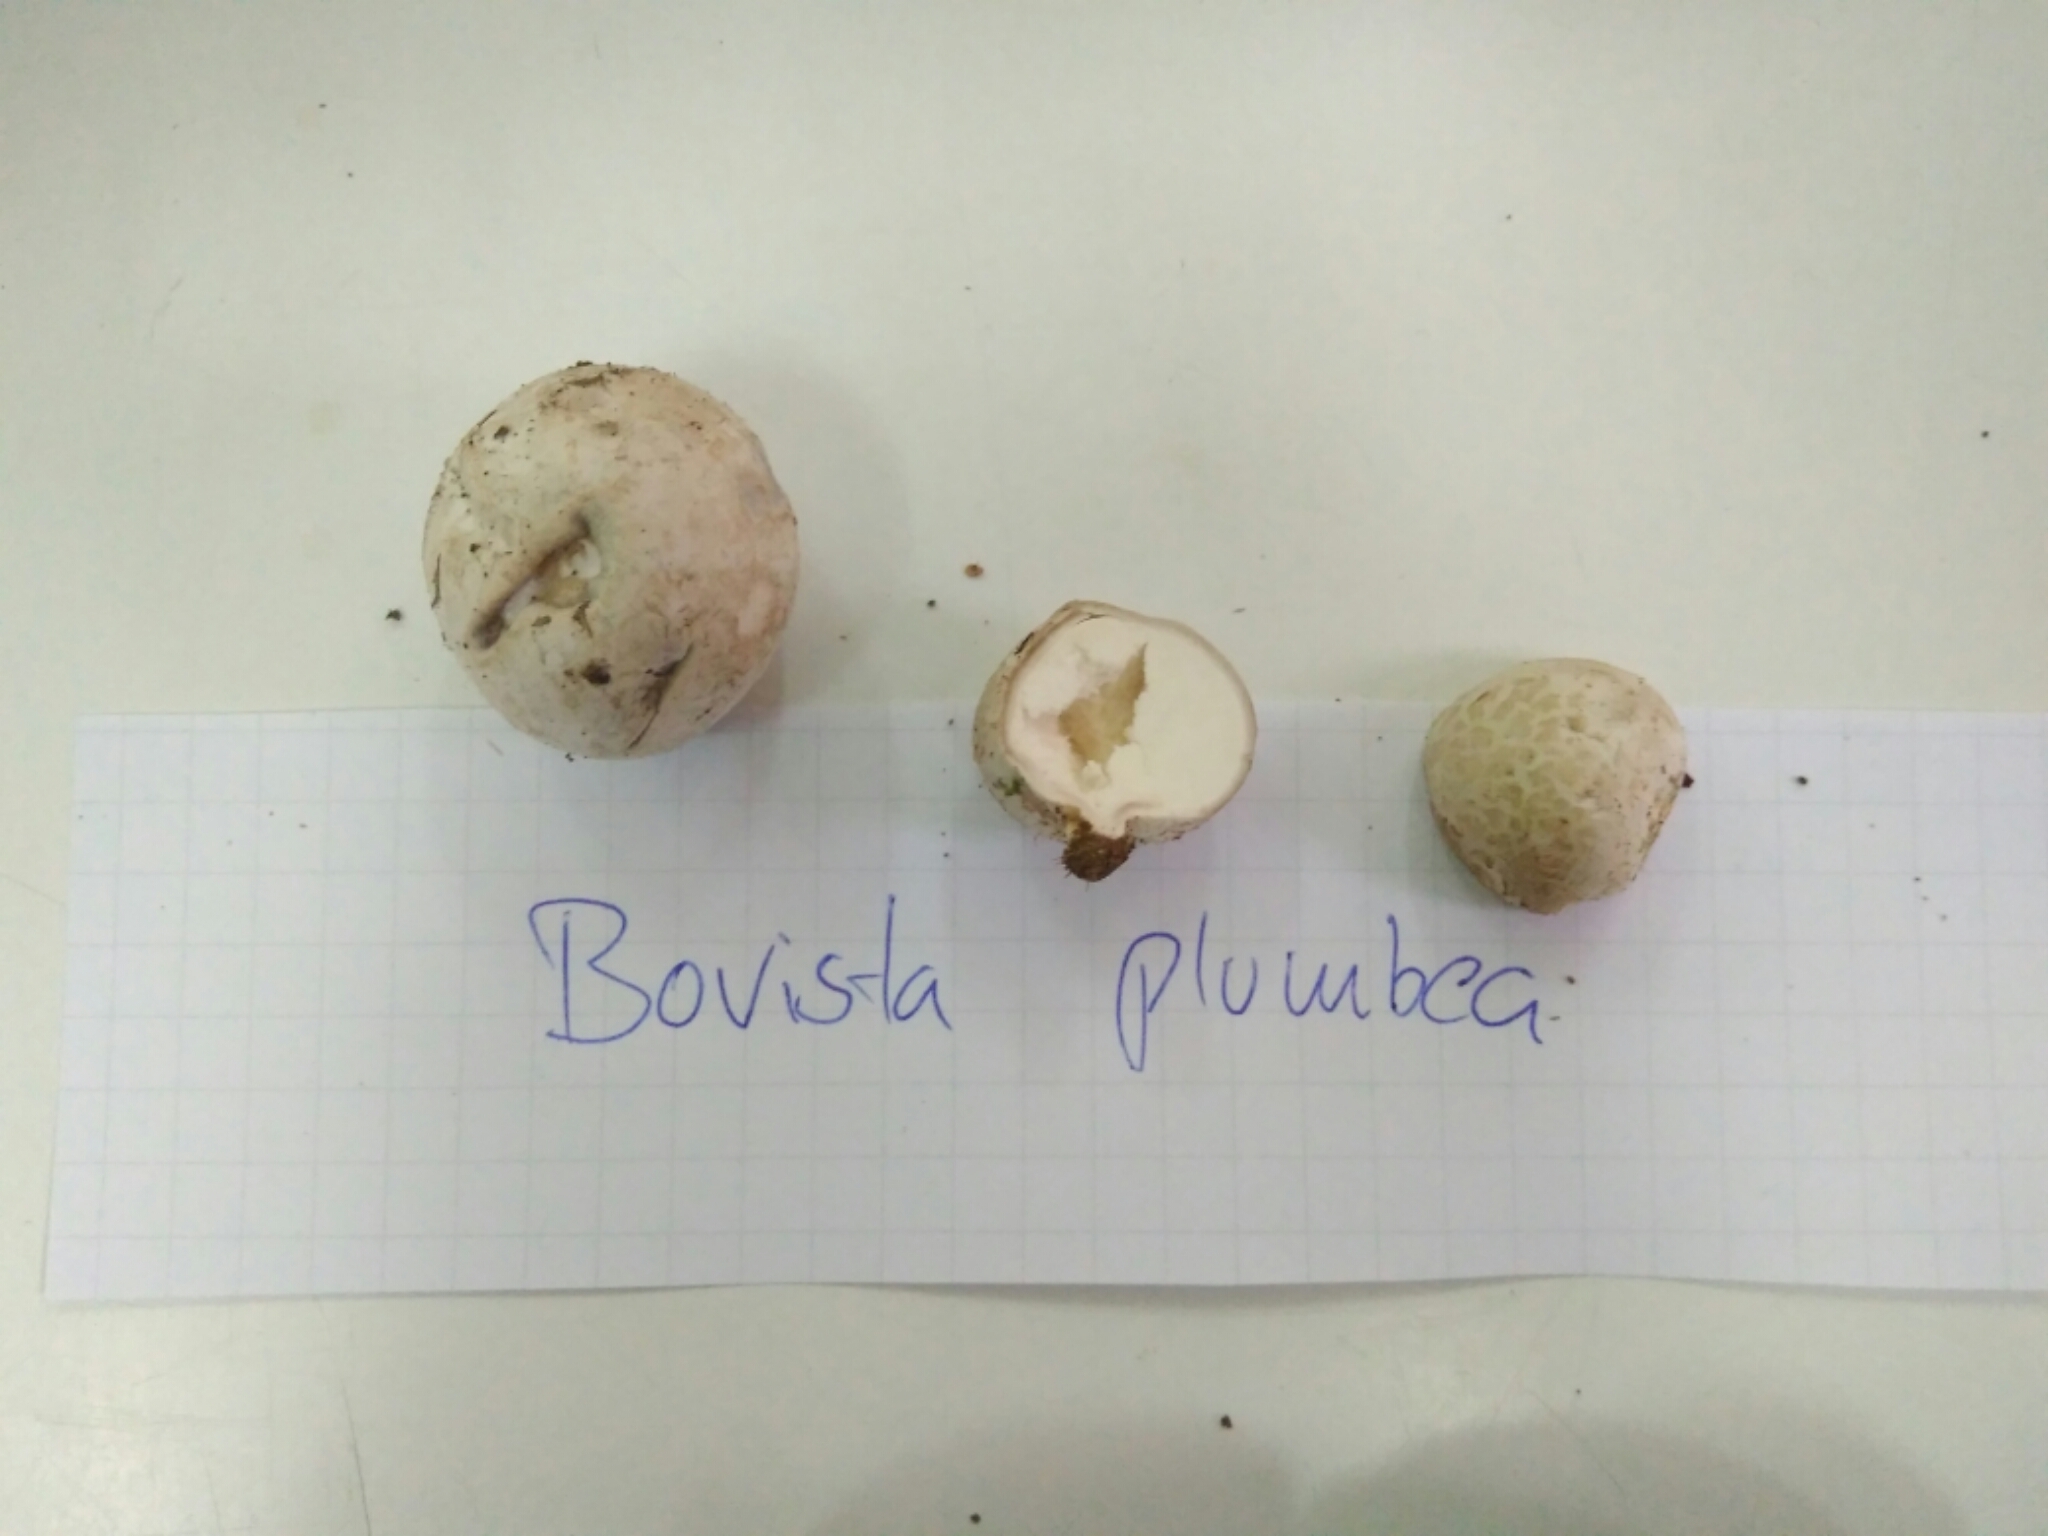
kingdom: Fungi
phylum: Basidiomycota
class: Agaricomycetes
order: Agaricales
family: Lycoperdaceae
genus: Bovista
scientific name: Bovista plumbea
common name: Grey puffball
